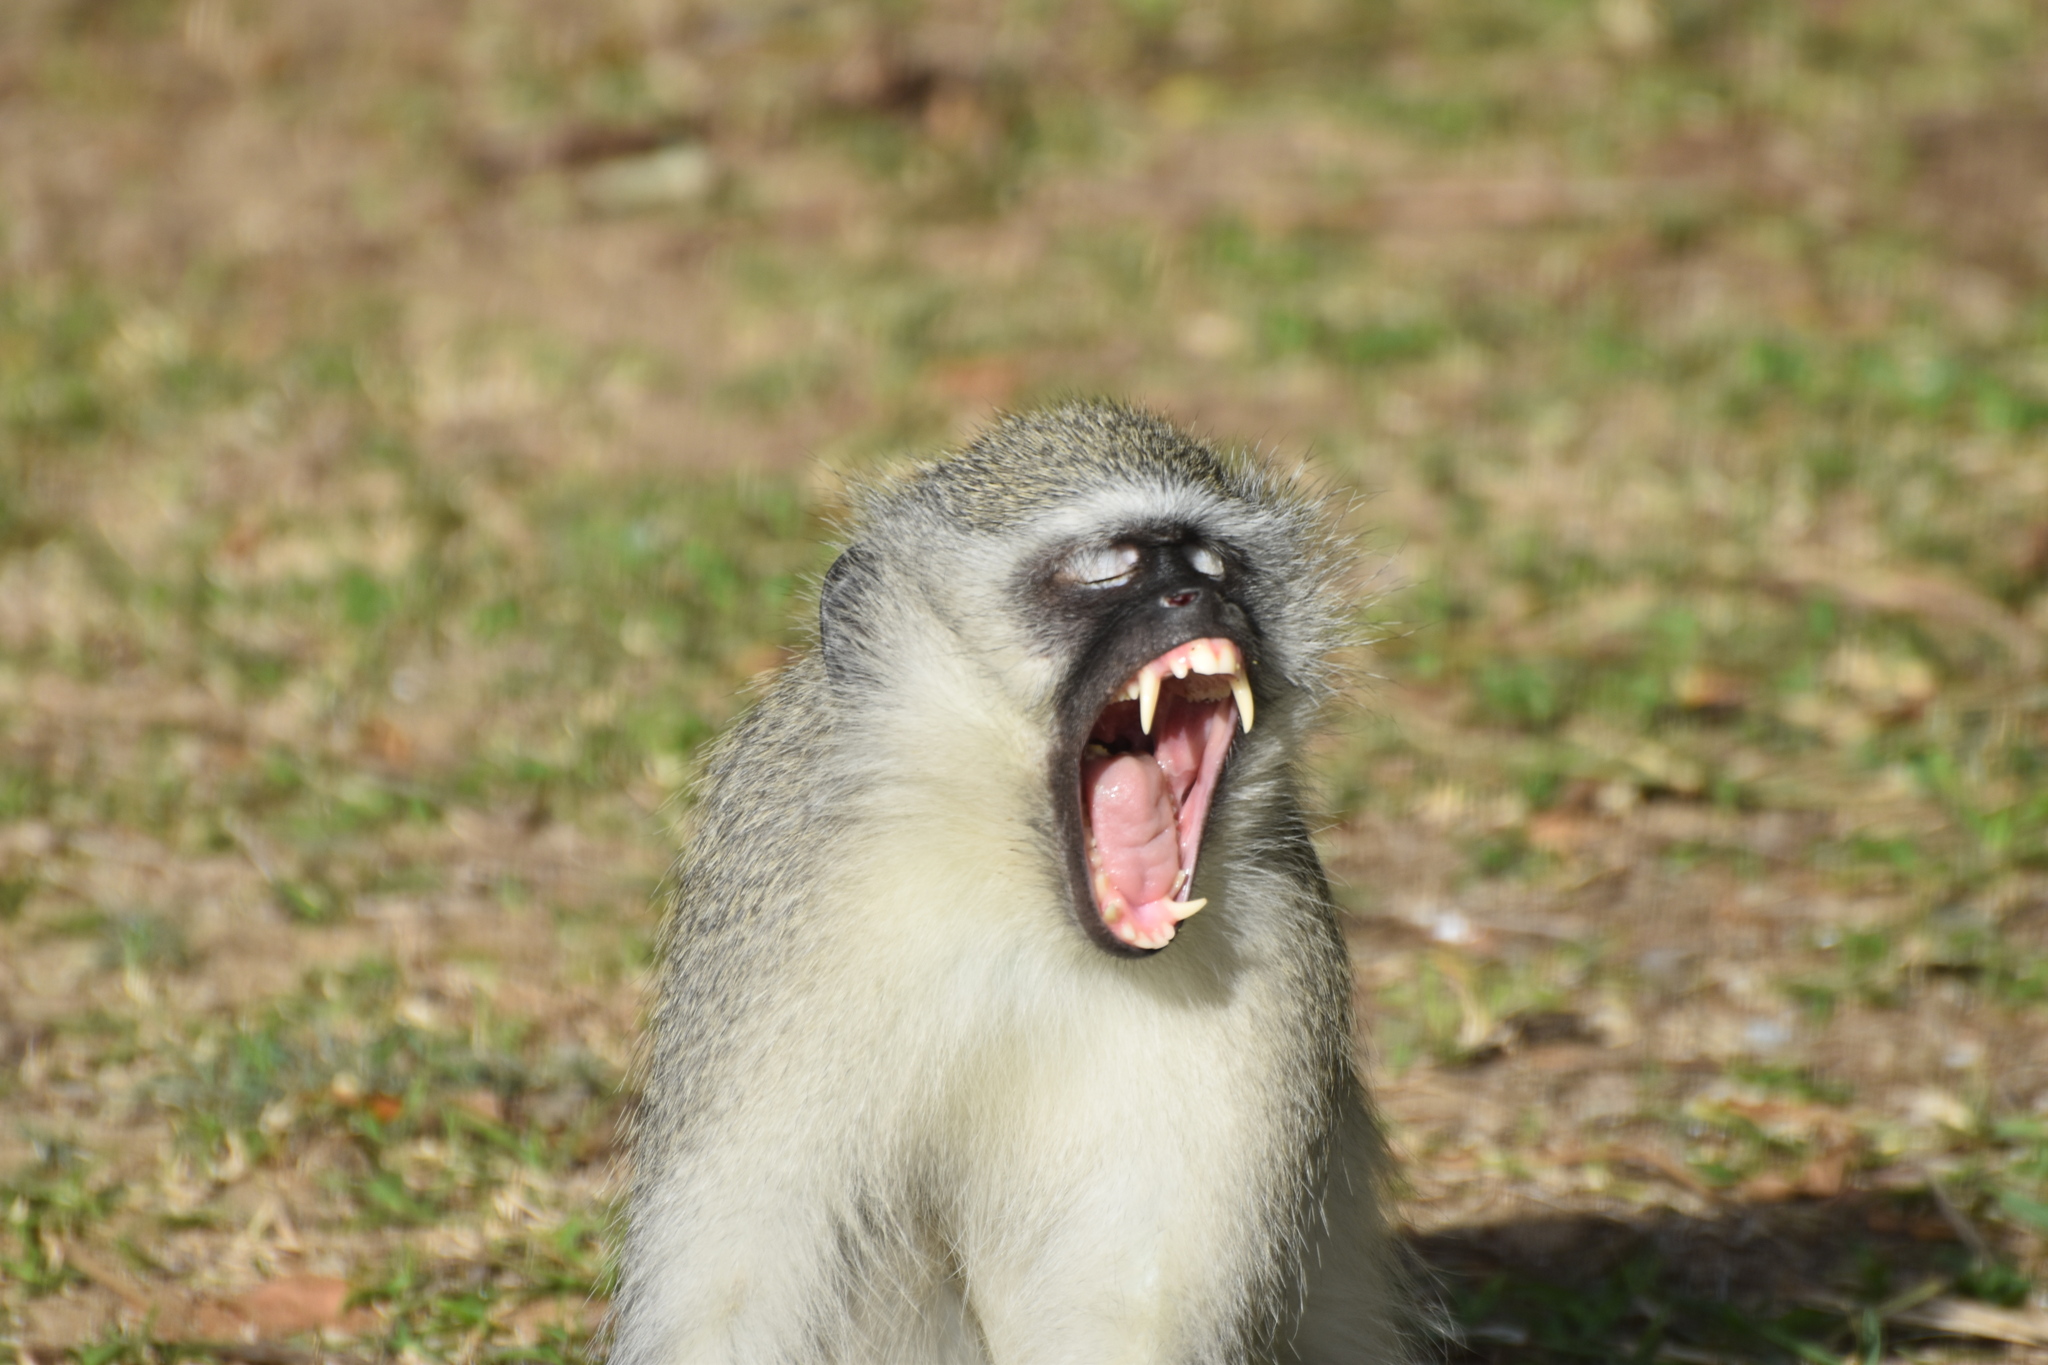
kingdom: Animalia
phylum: Chordata
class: Mammalia
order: Primates
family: Cercopithecidae
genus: Chlorocebus
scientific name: Chlorocebus pygerythrus
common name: Vervet monkey
